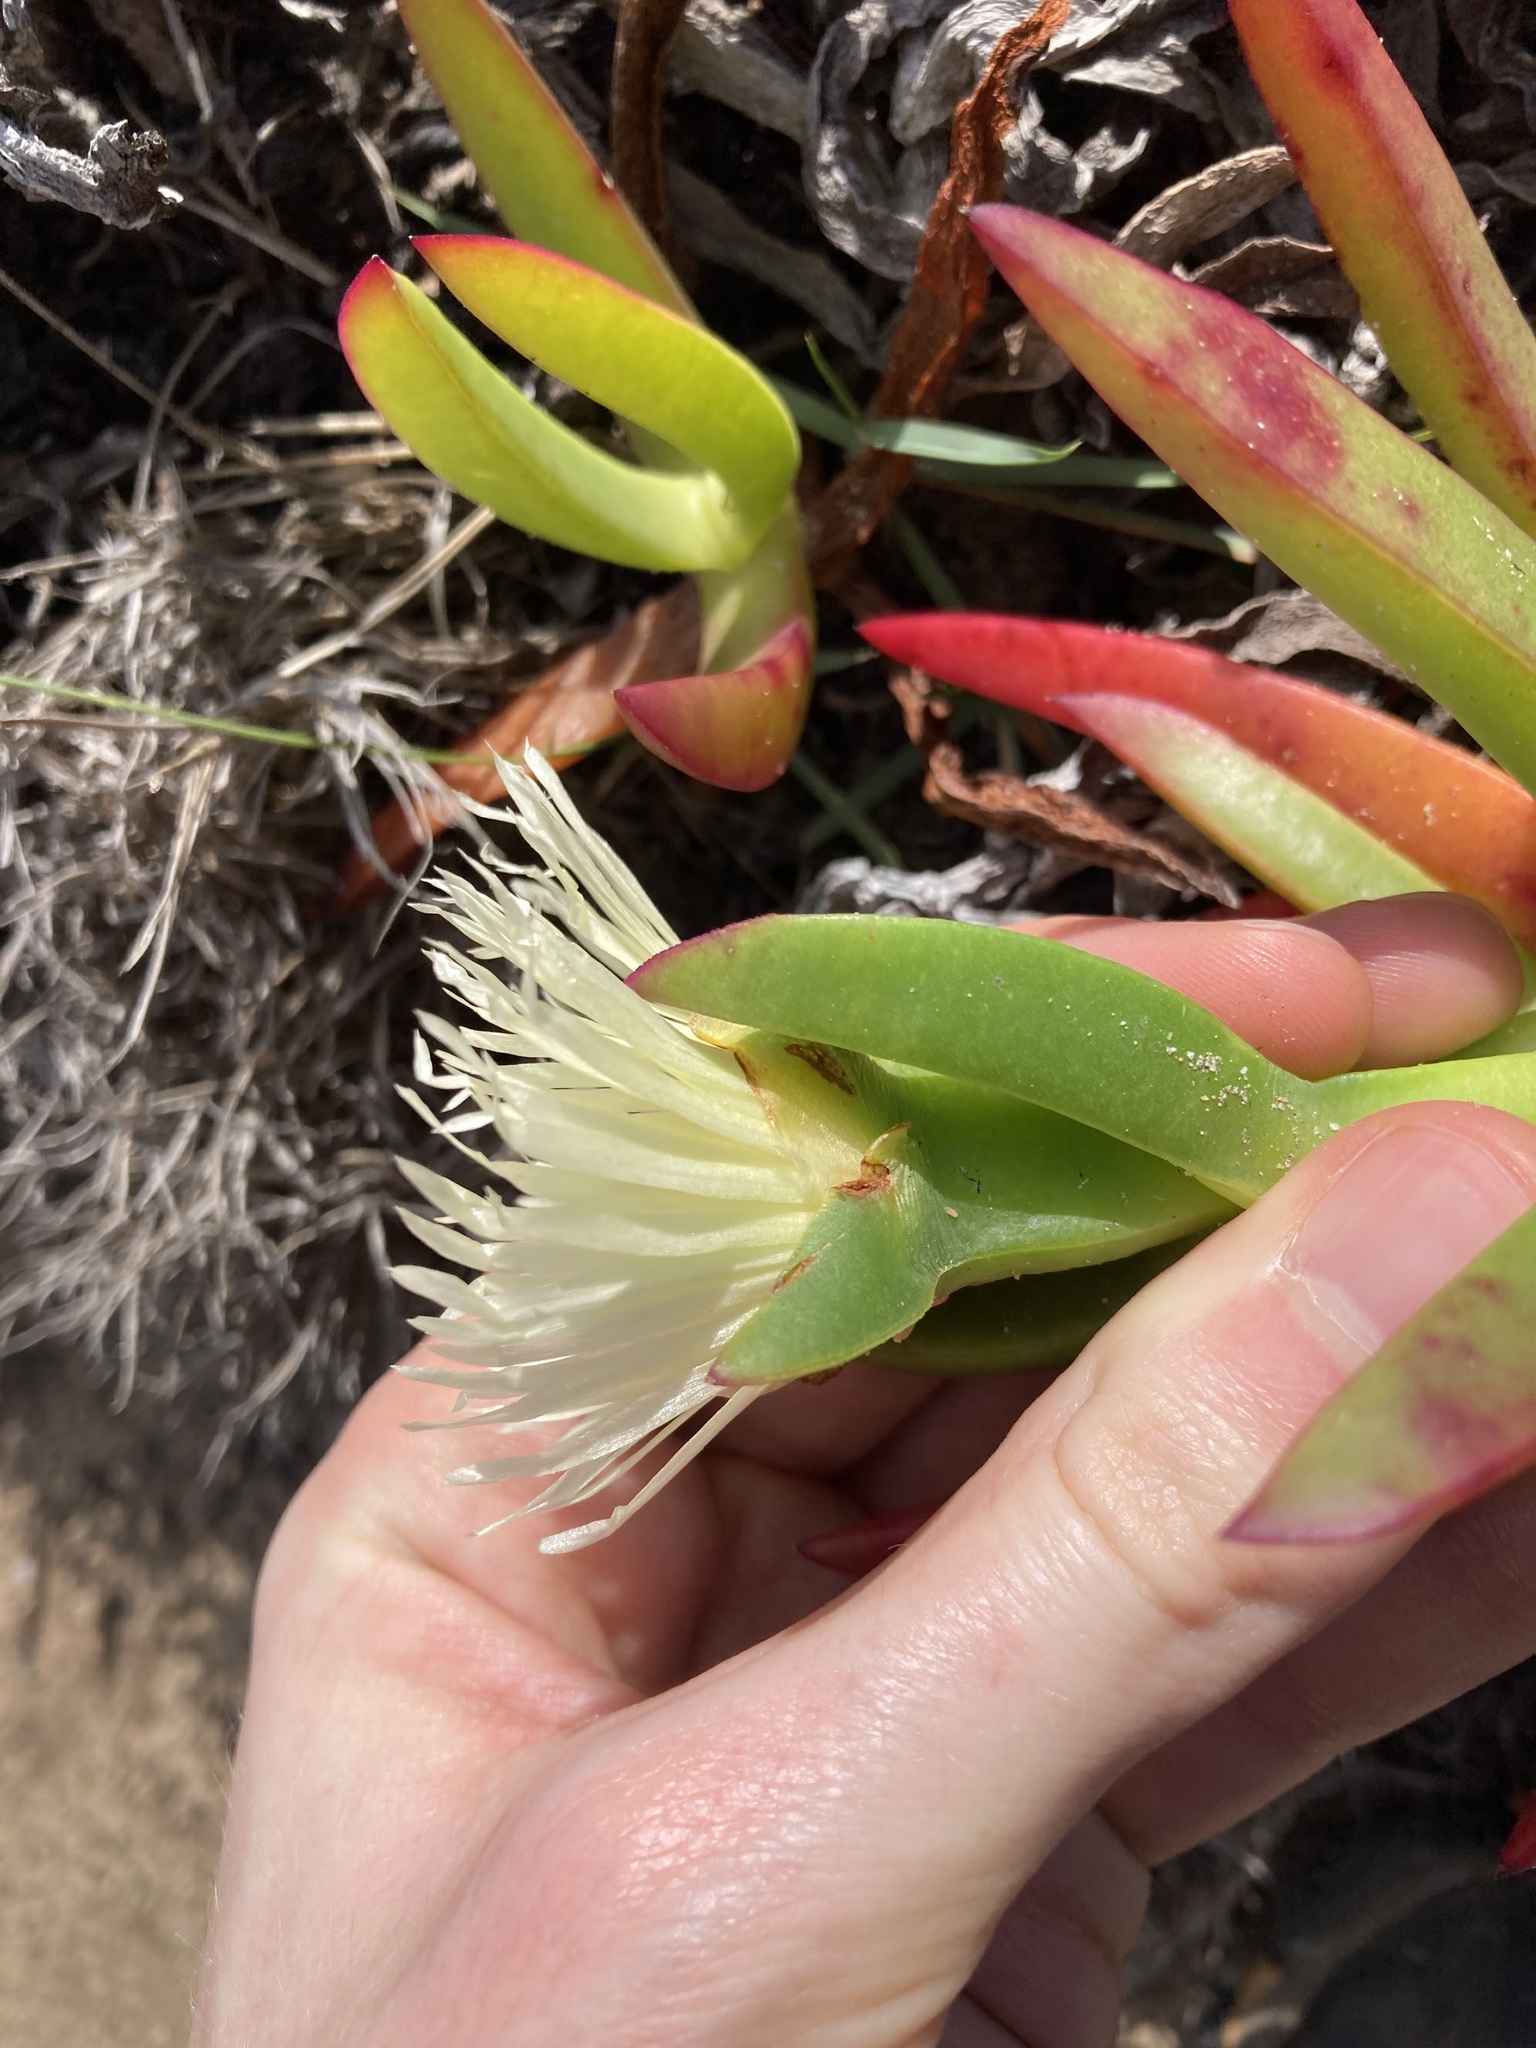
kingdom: Plantae
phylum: Tracheophyta
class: Magnoliopsida
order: Caryophyllales
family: Aizoaceae
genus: Carpobrotus
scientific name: Carpobrotus edulis
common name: Hottentot-fig
